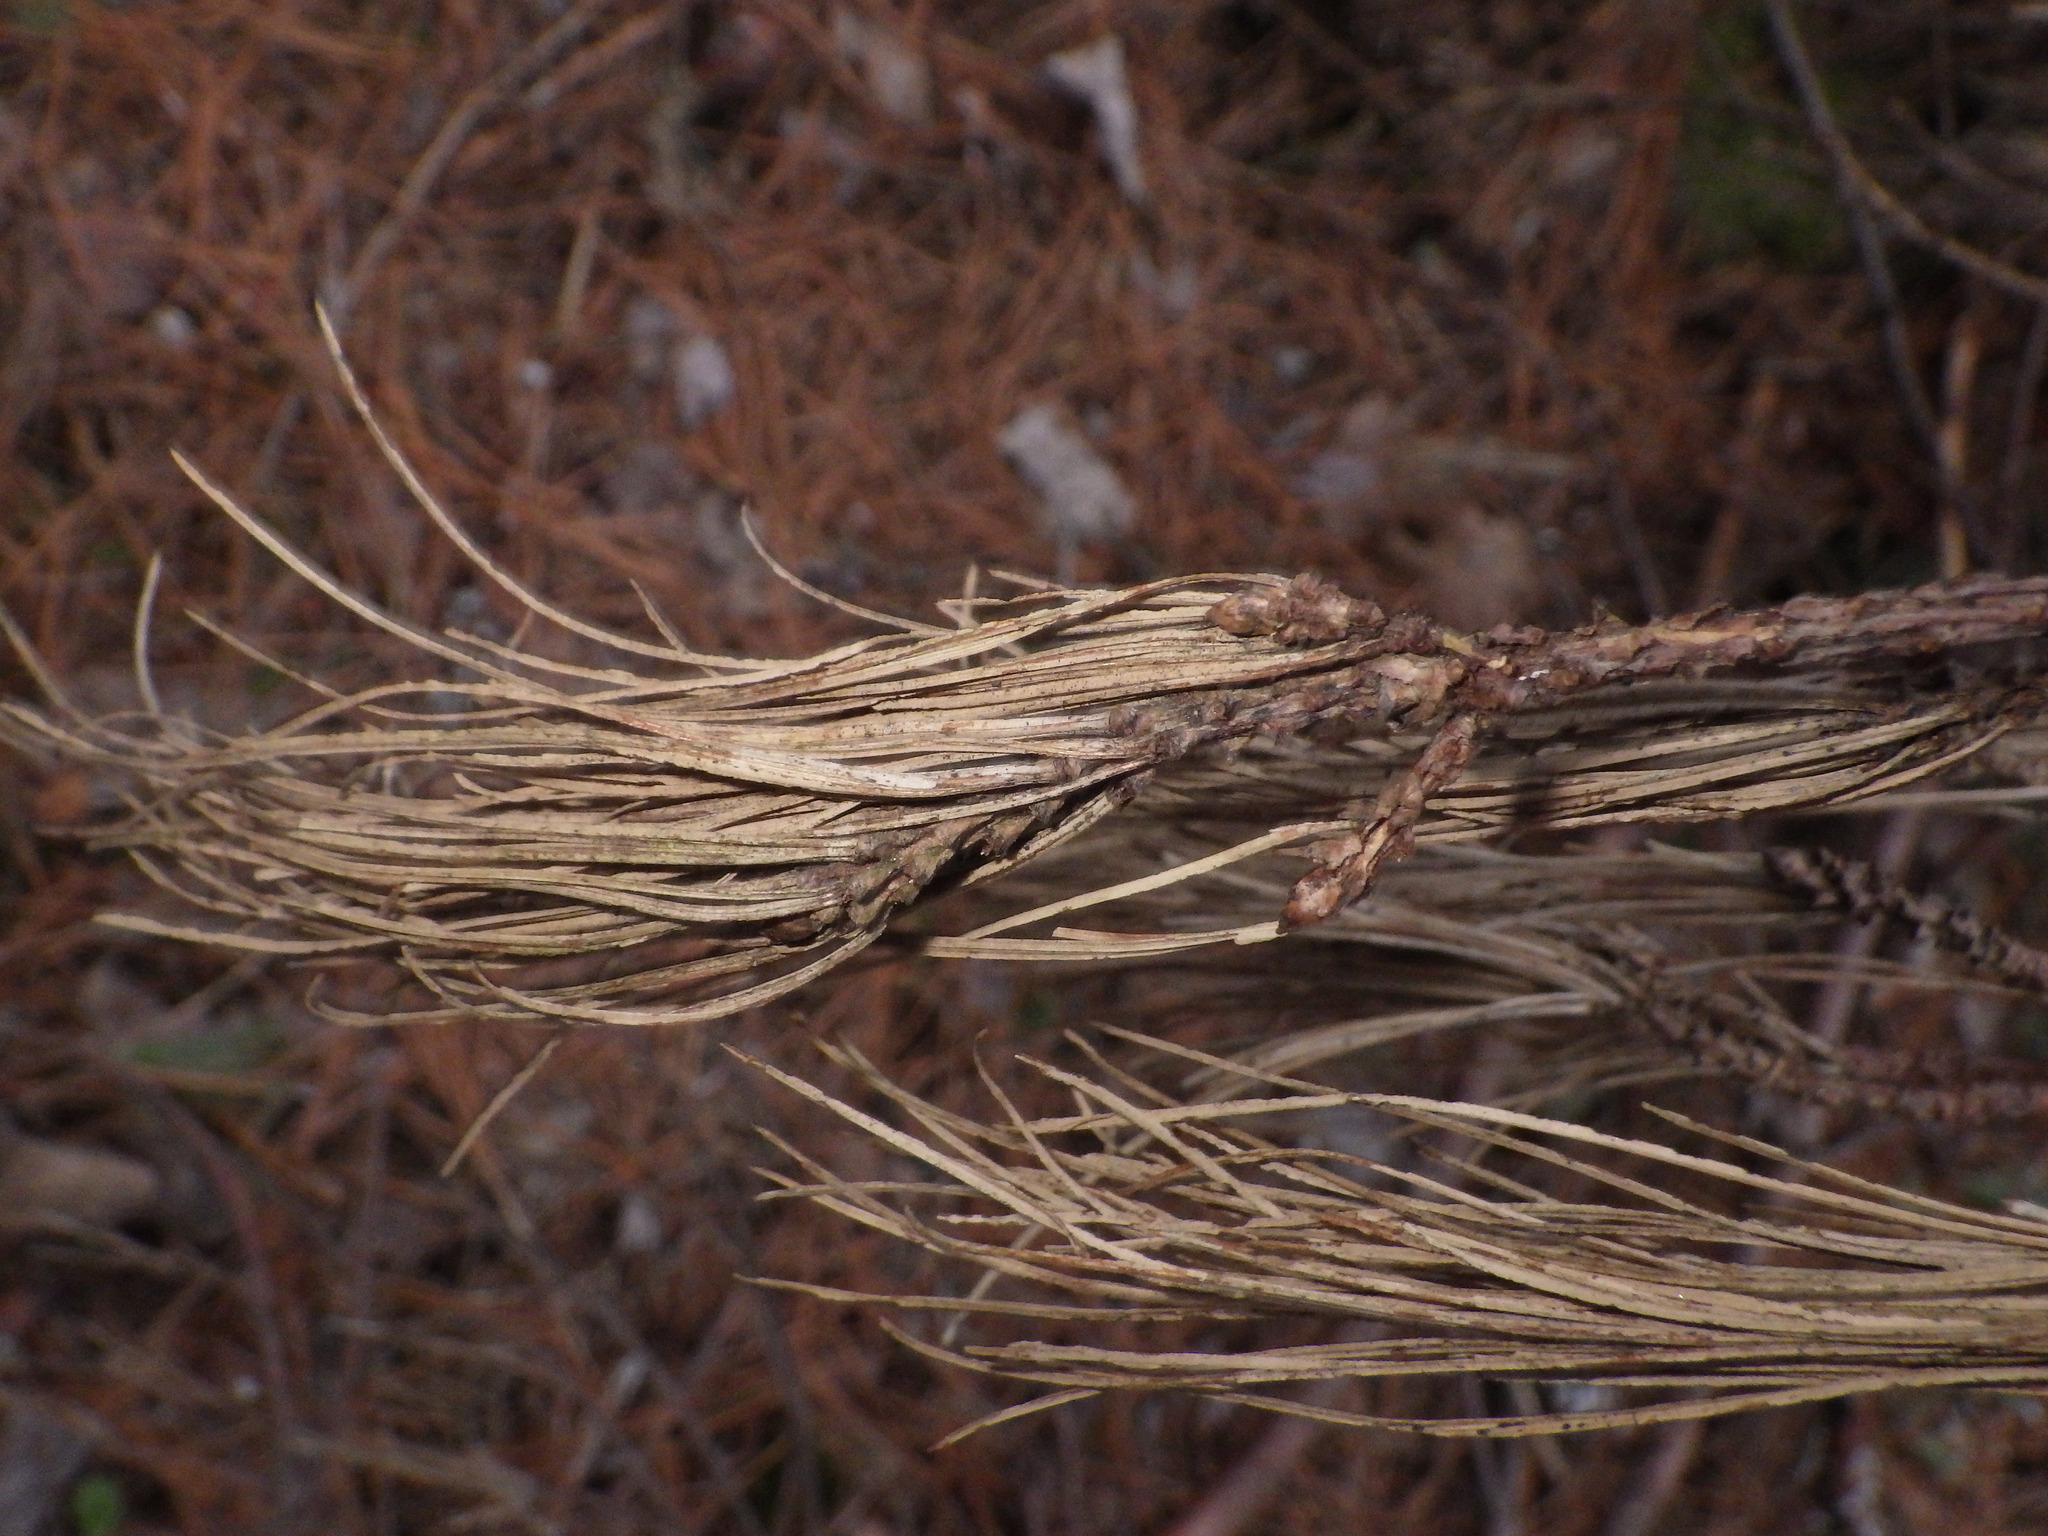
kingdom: Plantae
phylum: Tracheophyta
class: Pinopsida
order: Pinales
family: Pinaceae
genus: Pinus
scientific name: Pinus strobus
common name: Weymouth pine
